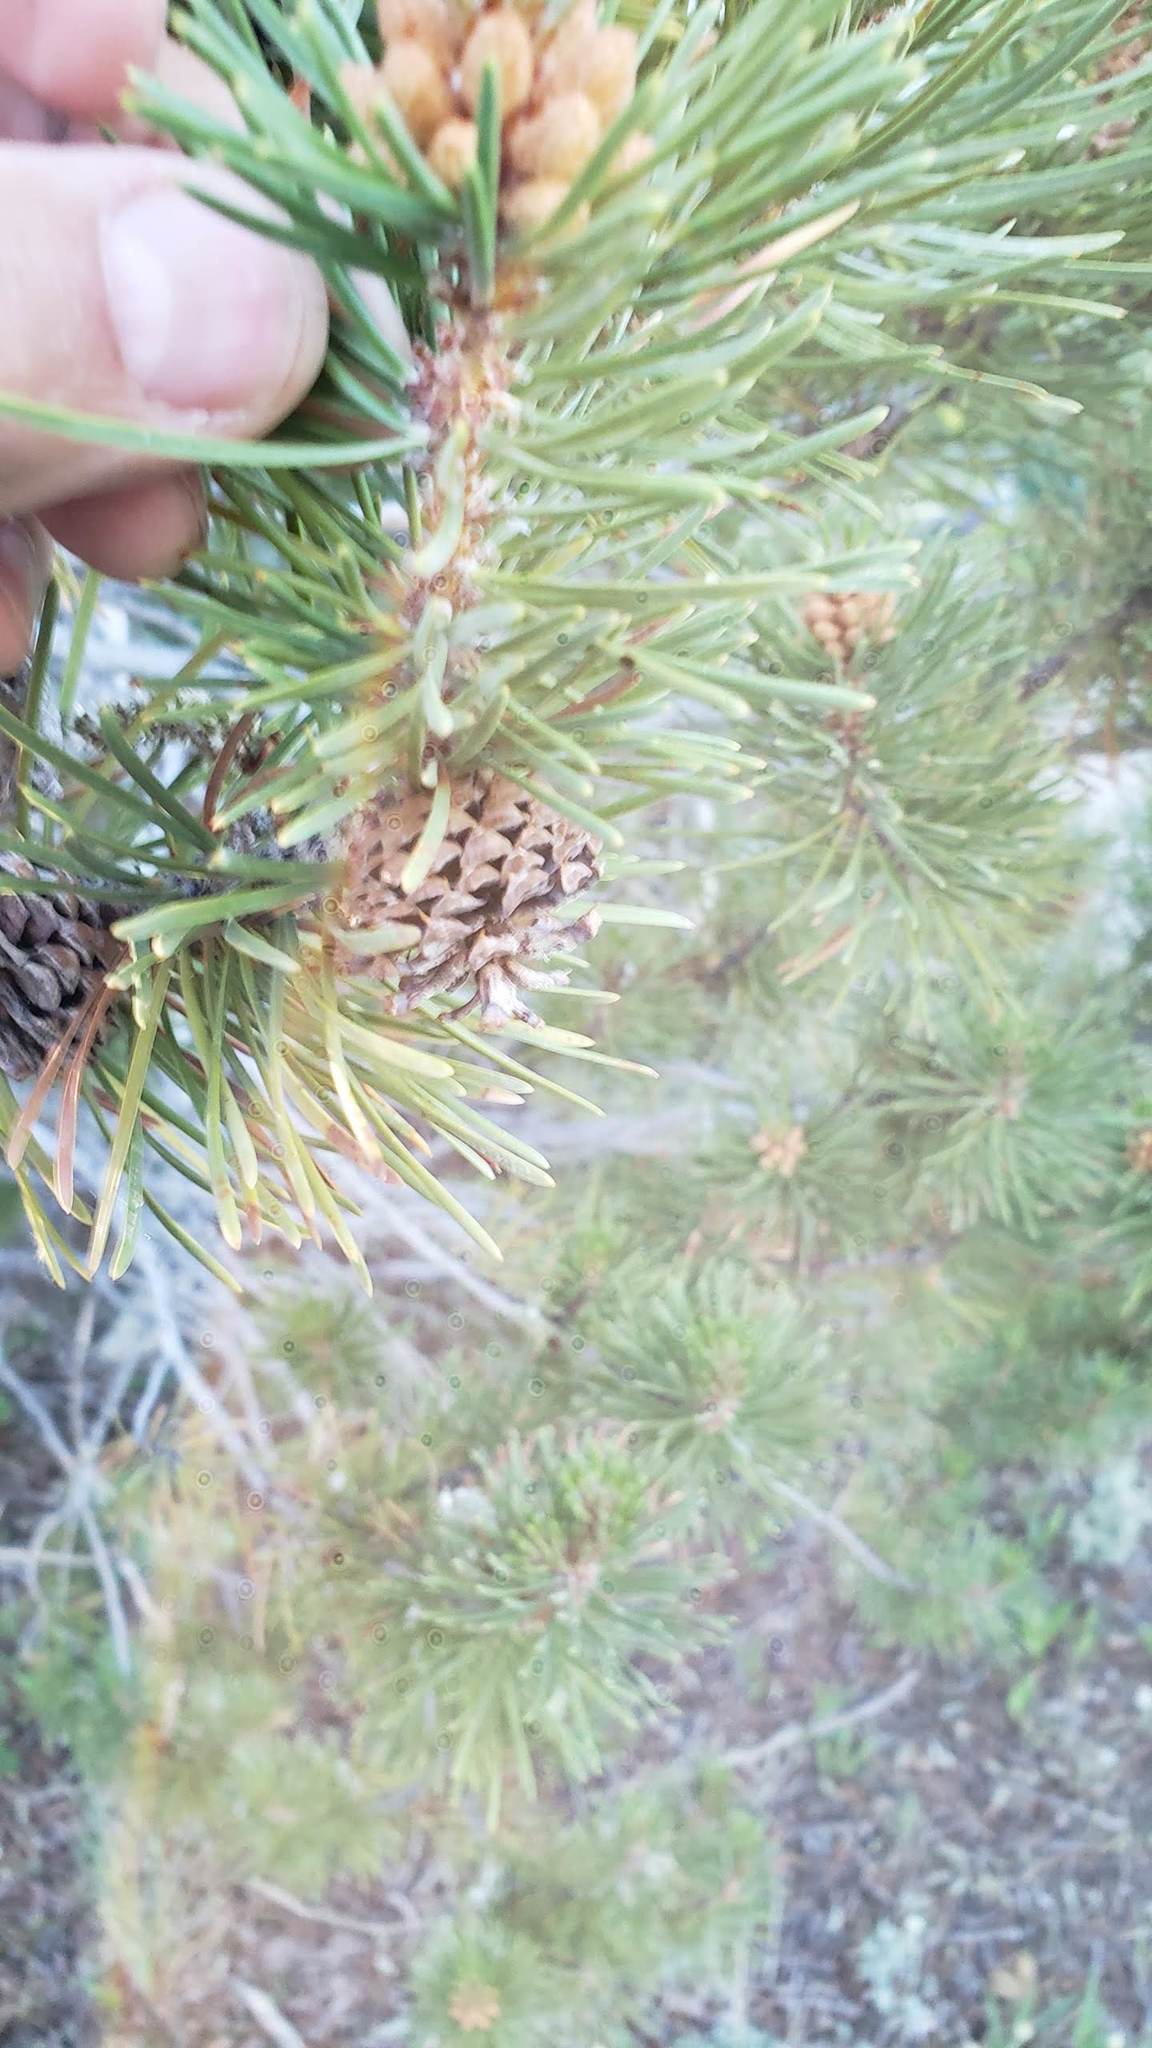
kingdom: Plantae
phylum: Tracheophyta
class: Pinopsida
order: Pinales
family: Pinaceae
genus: Pinus
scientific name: Pinus contorta
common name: Lodgepole pine
